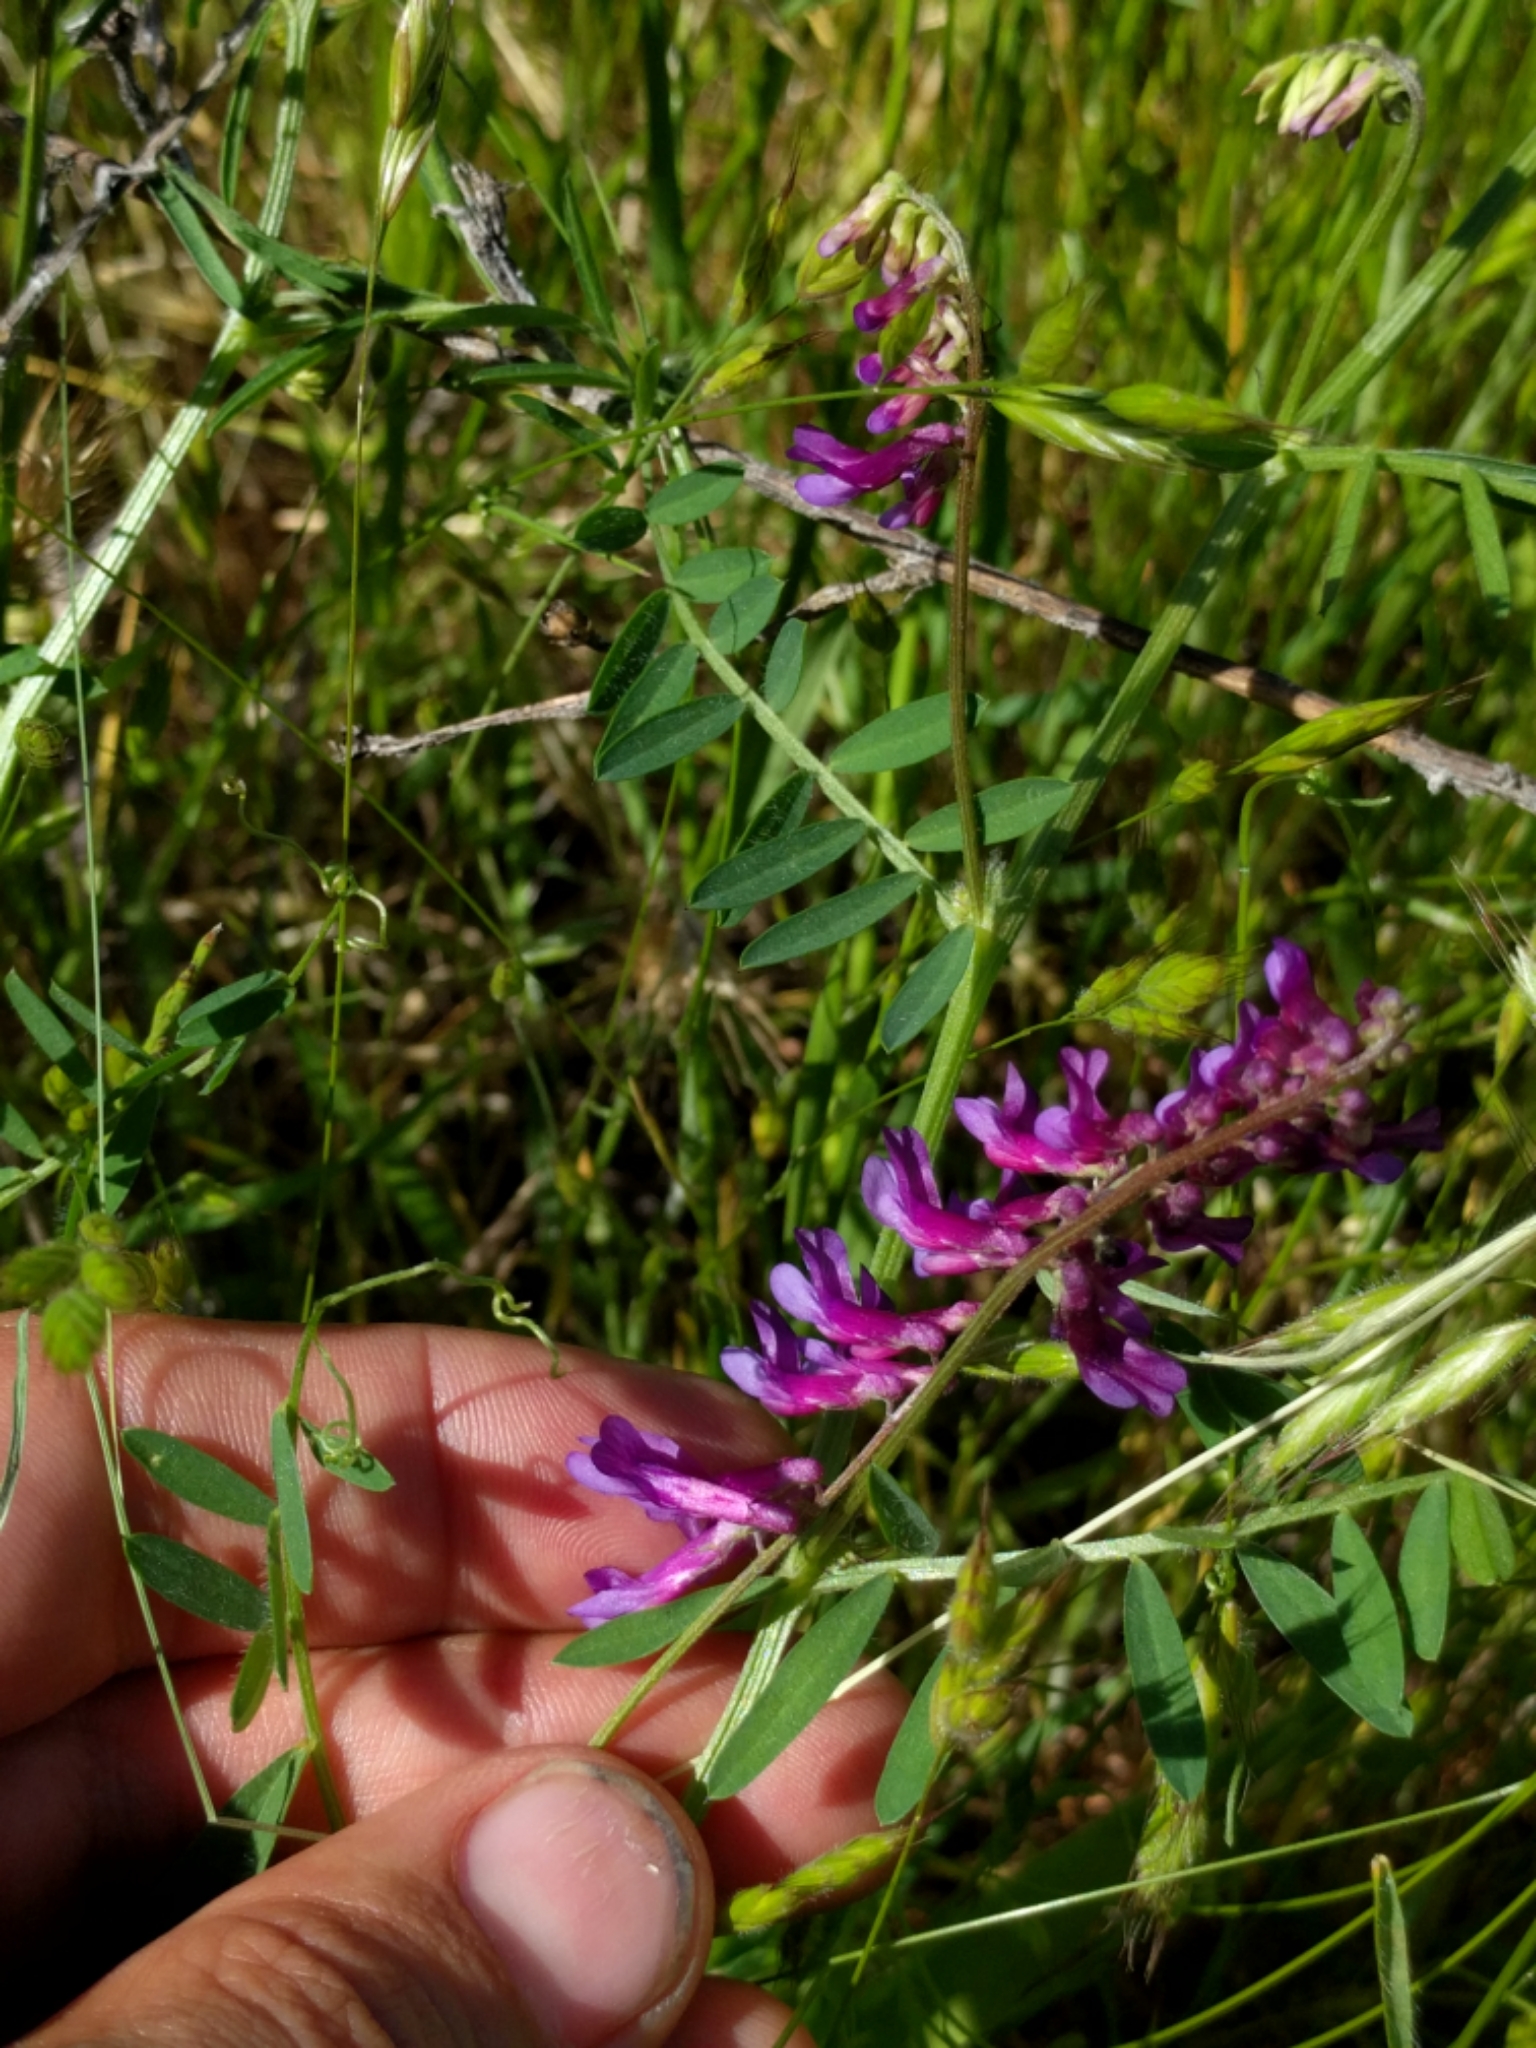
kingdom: Plantae
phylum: Tracheophyta
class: Magnoliopsida
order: Fabales
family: Fabaceae
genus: Vicia
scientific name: Vicia villosa
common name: Fodder vetch
